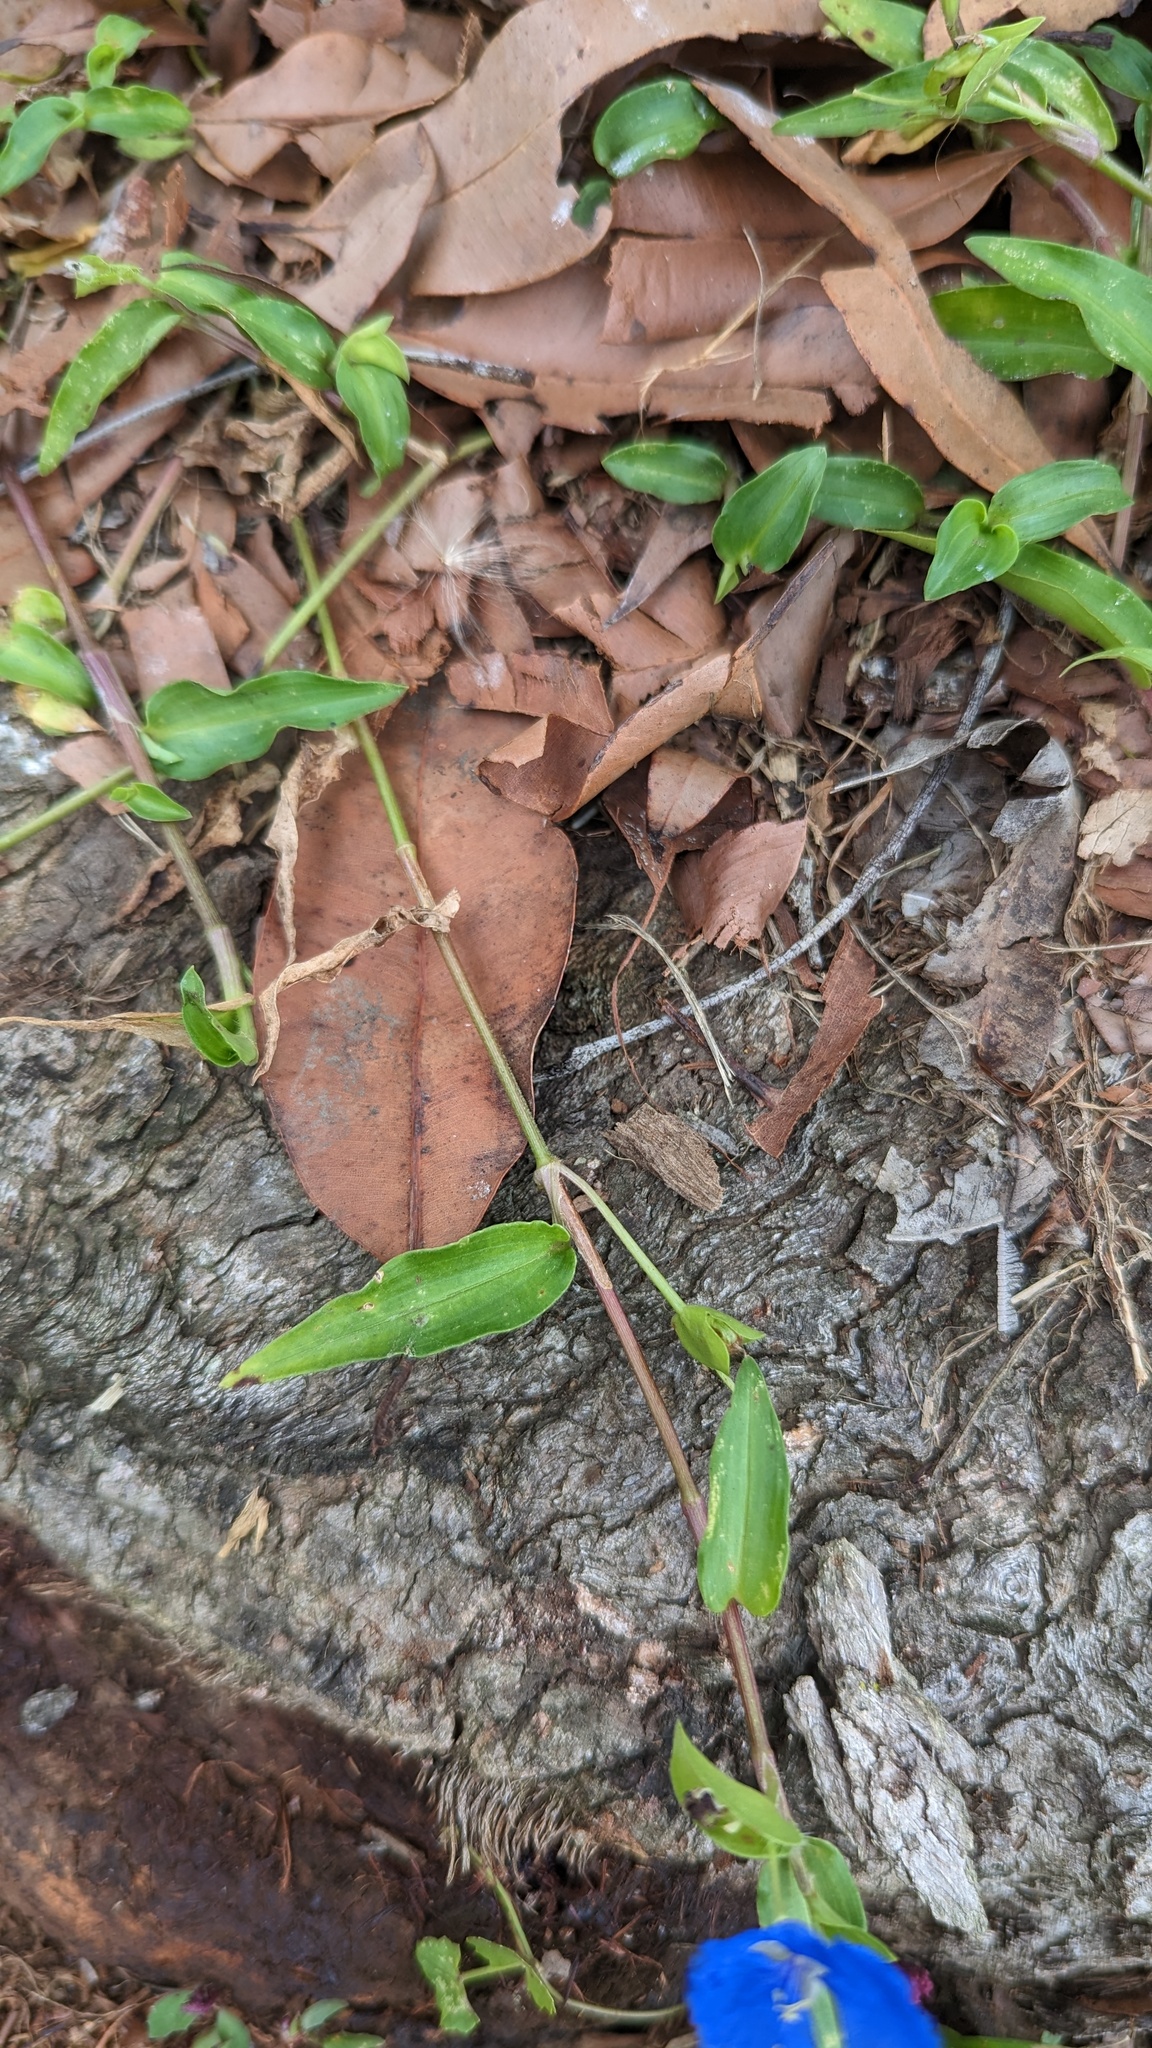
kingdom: Plantae
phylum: Tracheophyta
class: Liliopsida
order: Commelinales
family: Commelinaceae
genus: Commelina
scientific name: Commelina cyanea
